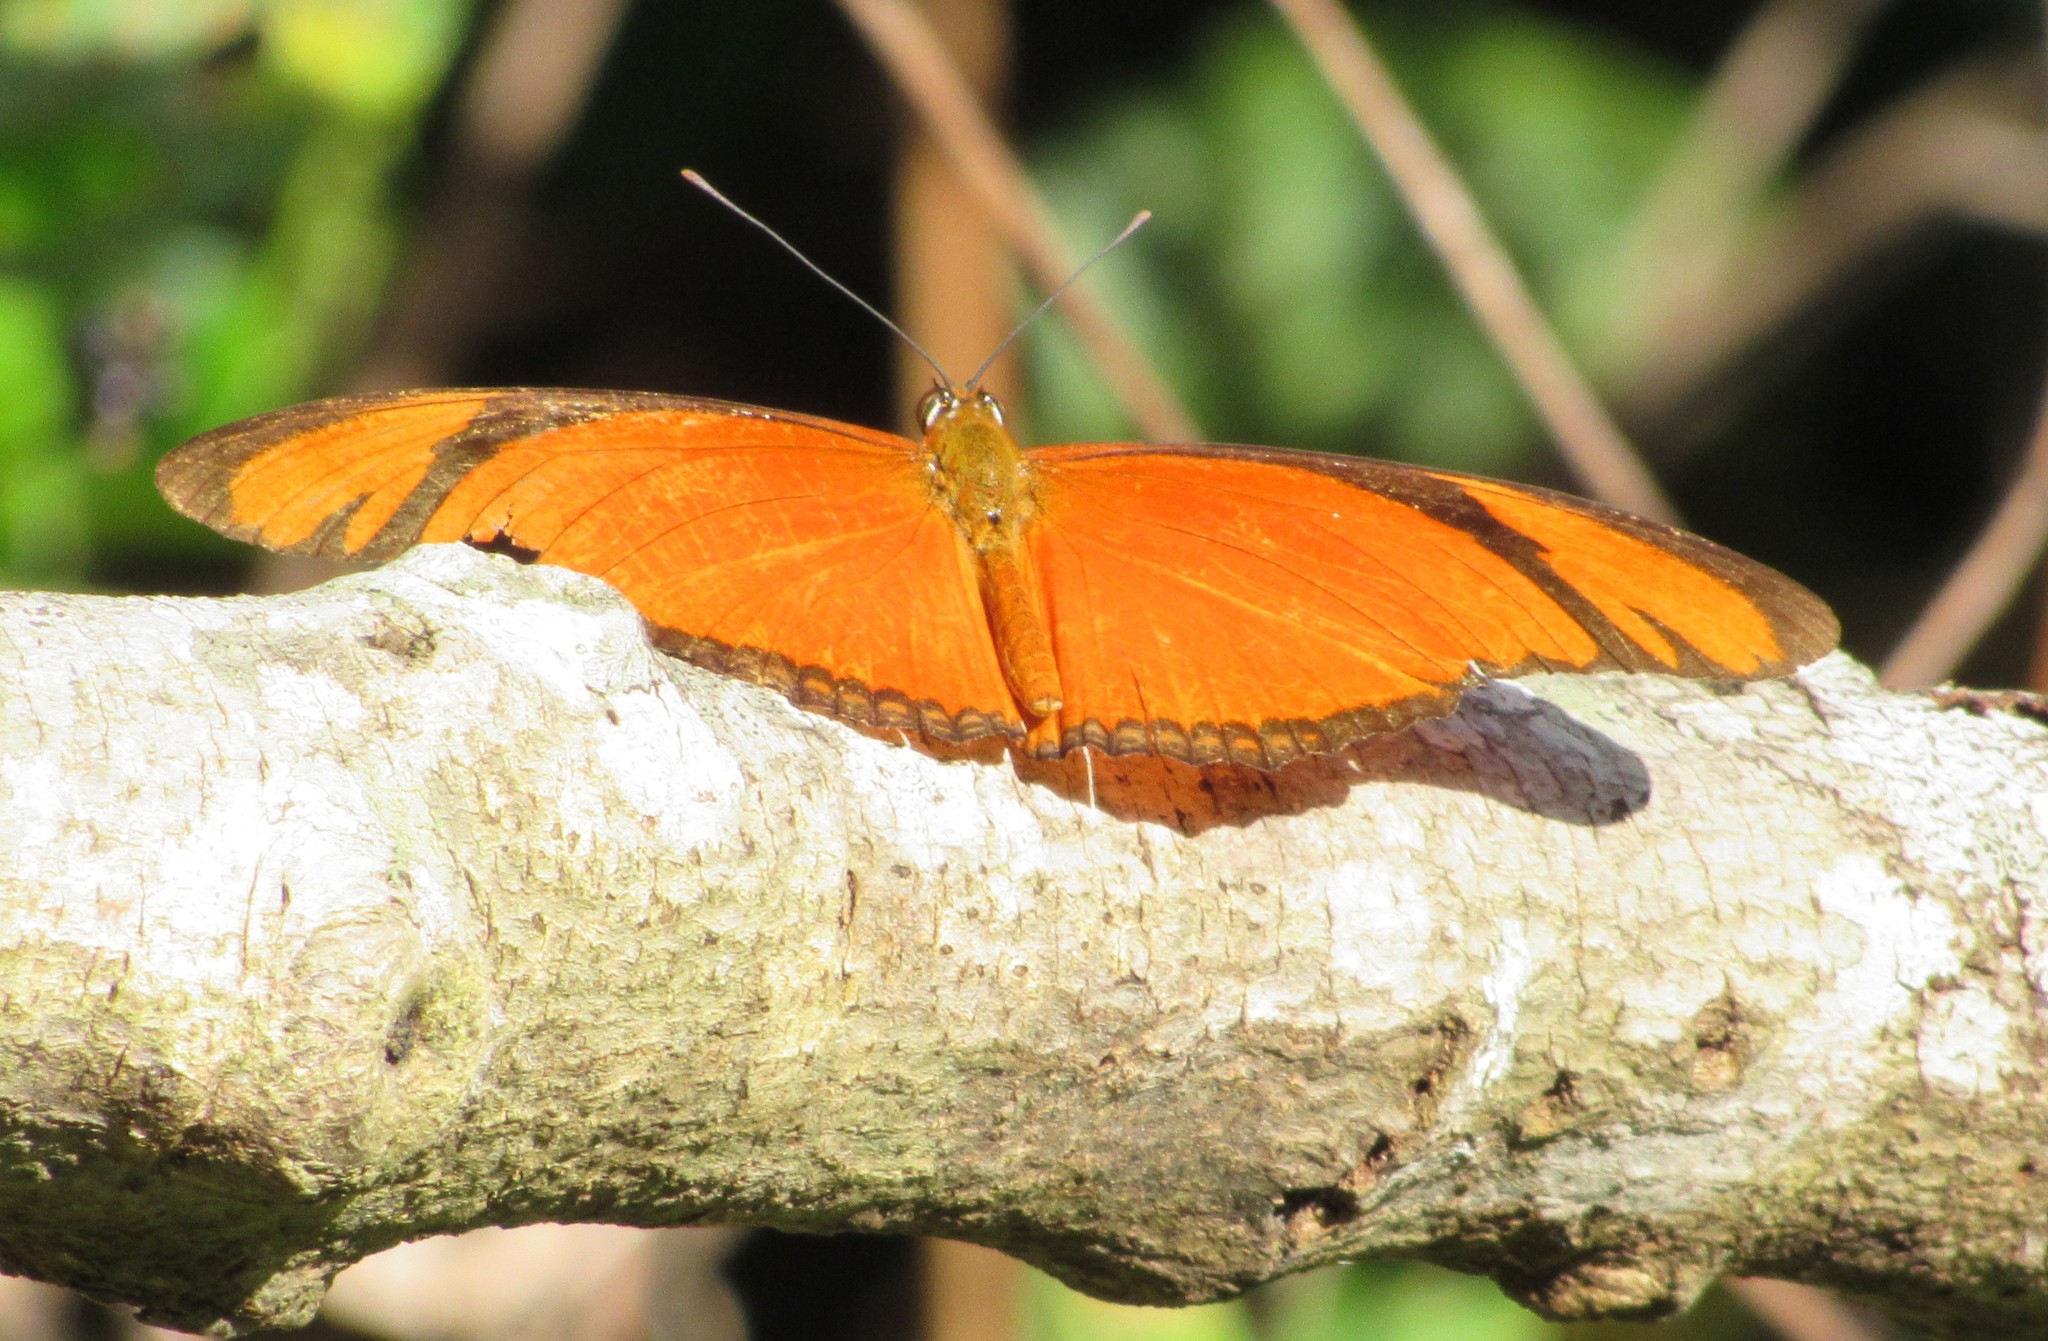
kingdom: Animalia
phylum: Arthropoda
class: Insecta
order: Lepidoptera
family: Nymphalidae
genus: Dryas
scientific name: Dryas iulia
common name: Flambeau
